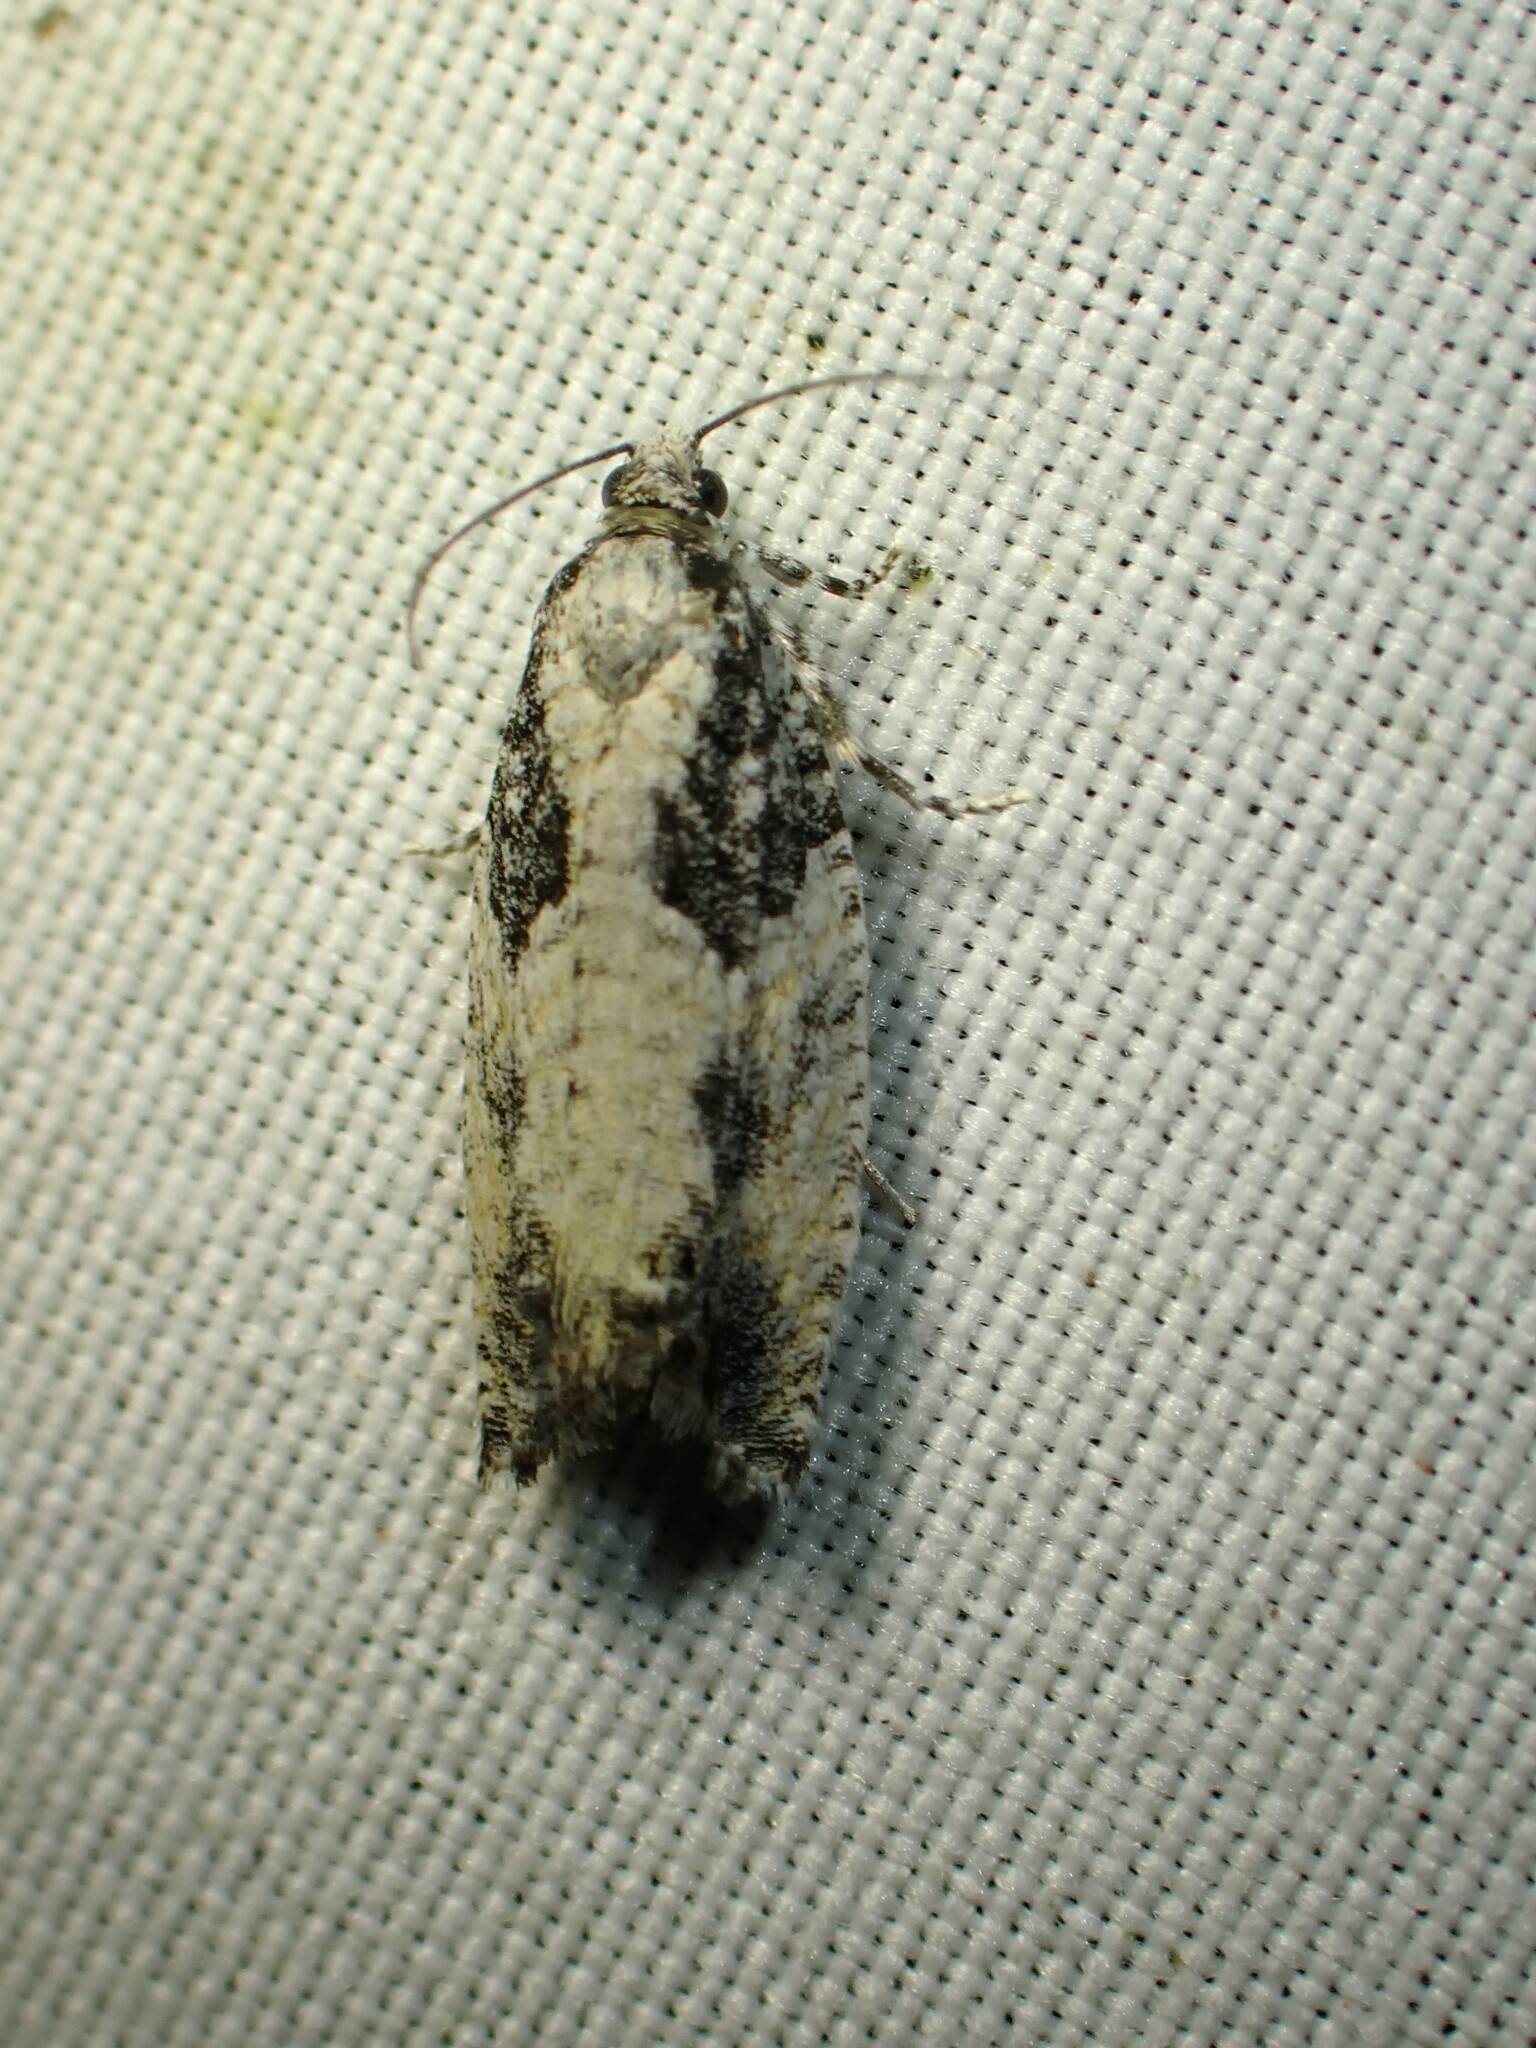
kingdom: Animalia
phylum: Arthropoda
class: Insecta
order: Lepidoptera
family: Tortricidae
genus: Epinotia
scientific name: Epinotia cinereana
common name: Grey aspen bell
